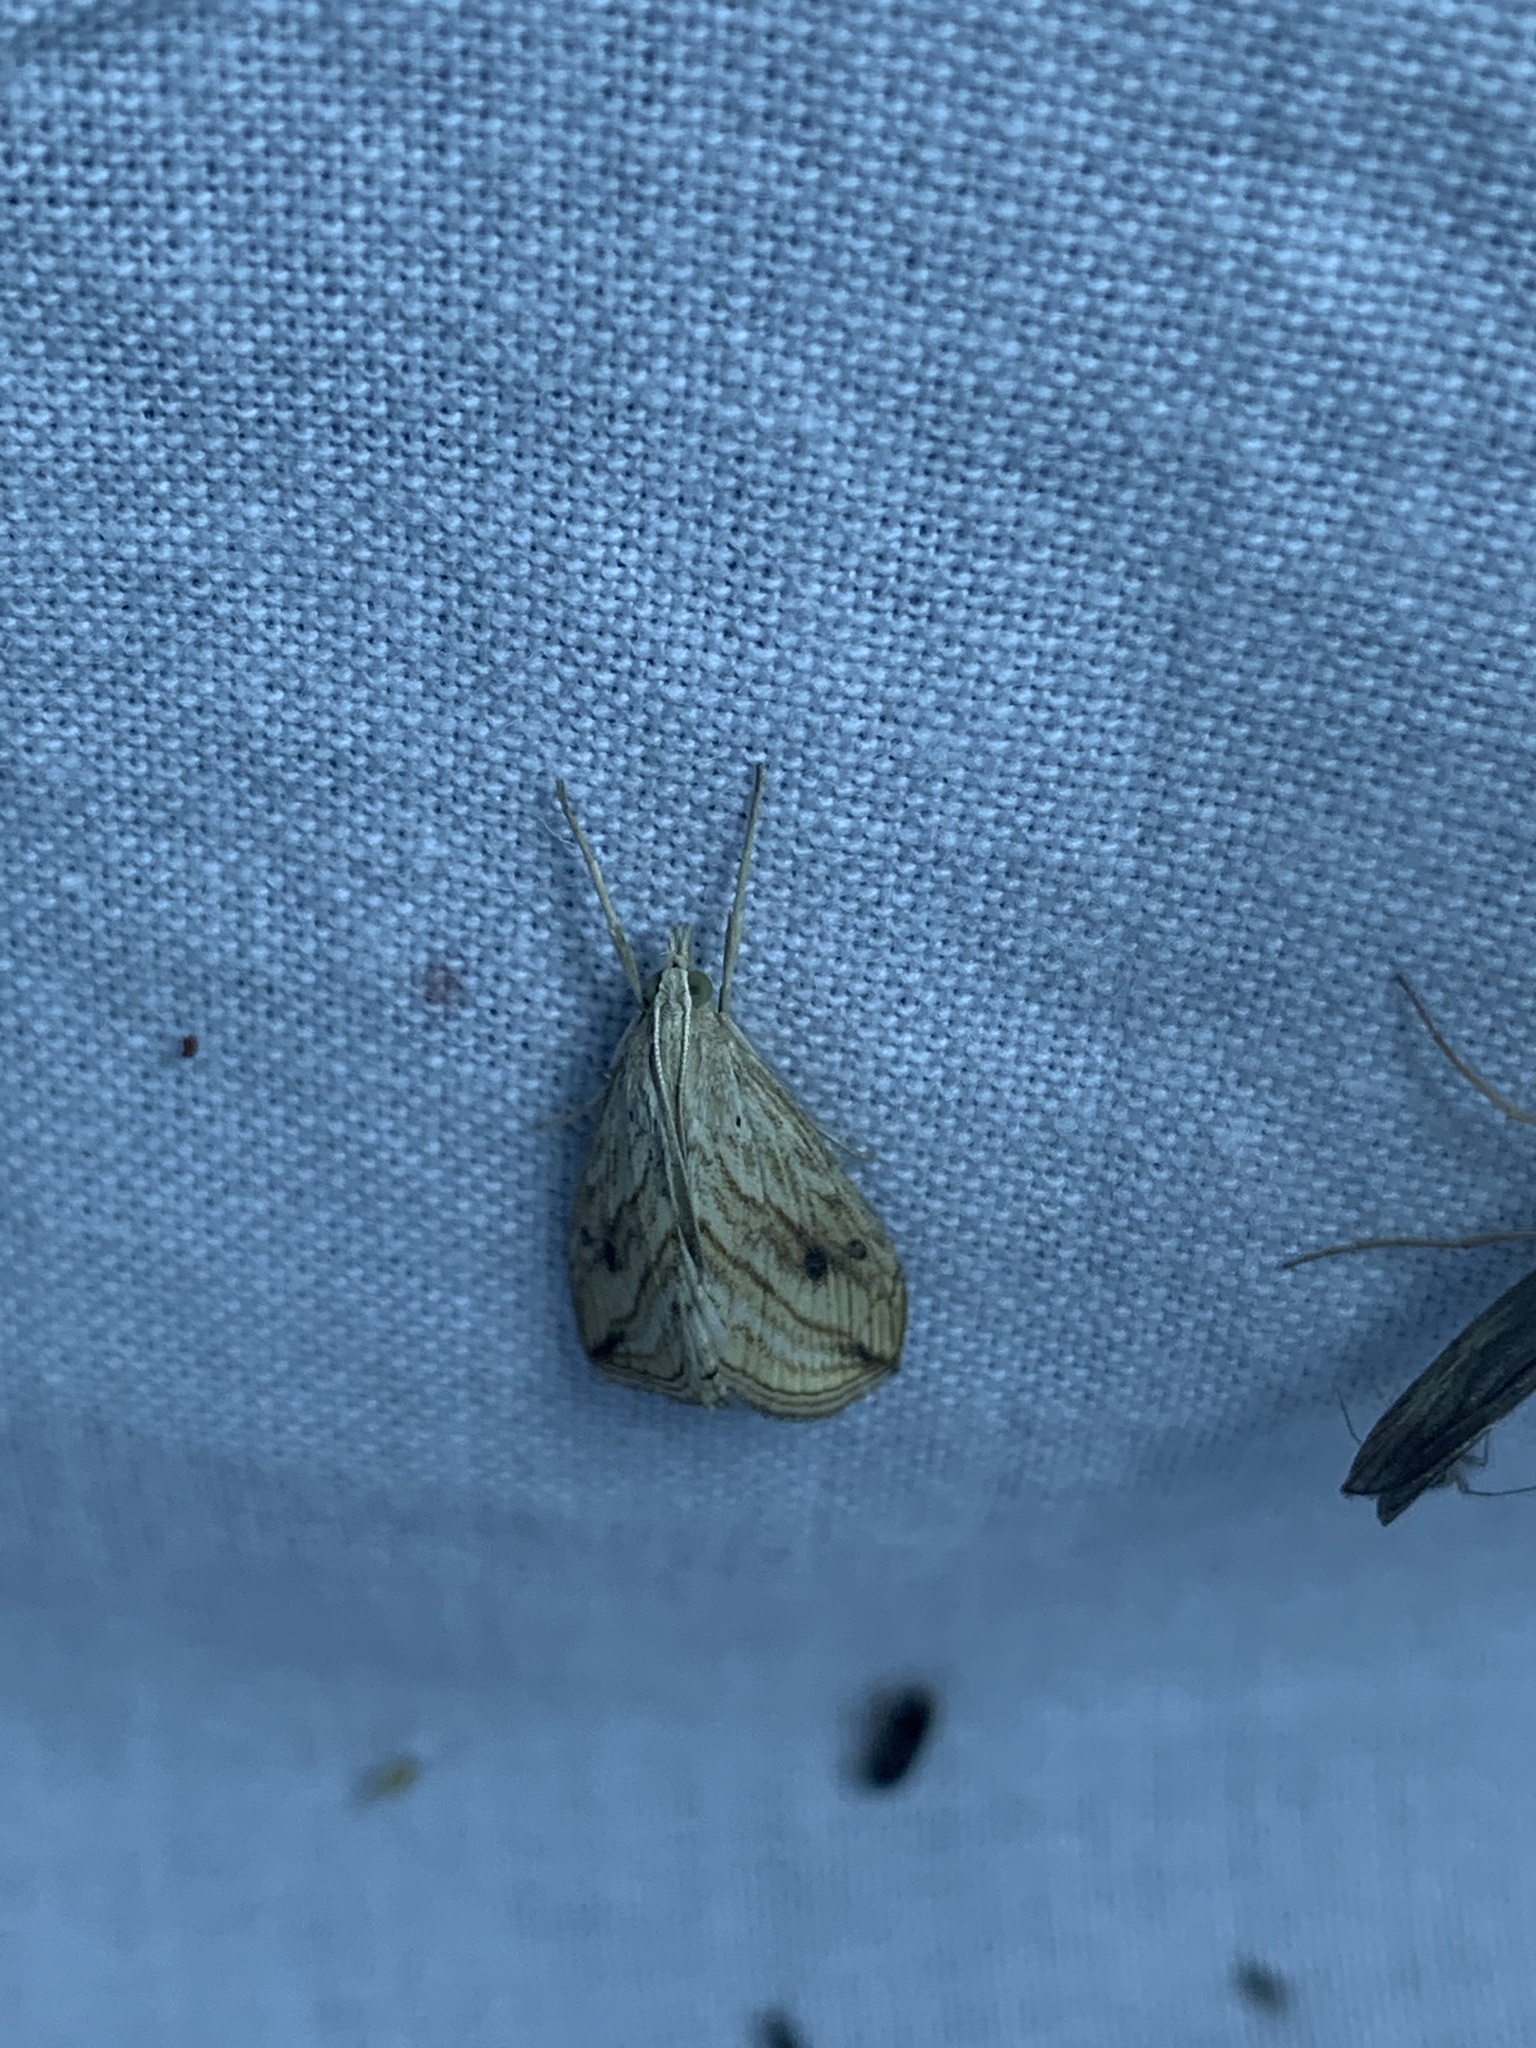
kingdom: Animalia
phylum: Arthropoda
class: Insecta
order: Lepidoptera
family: Crambidae
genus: Evergestis
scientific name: Evergestis forficalis
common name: Garden pebble
